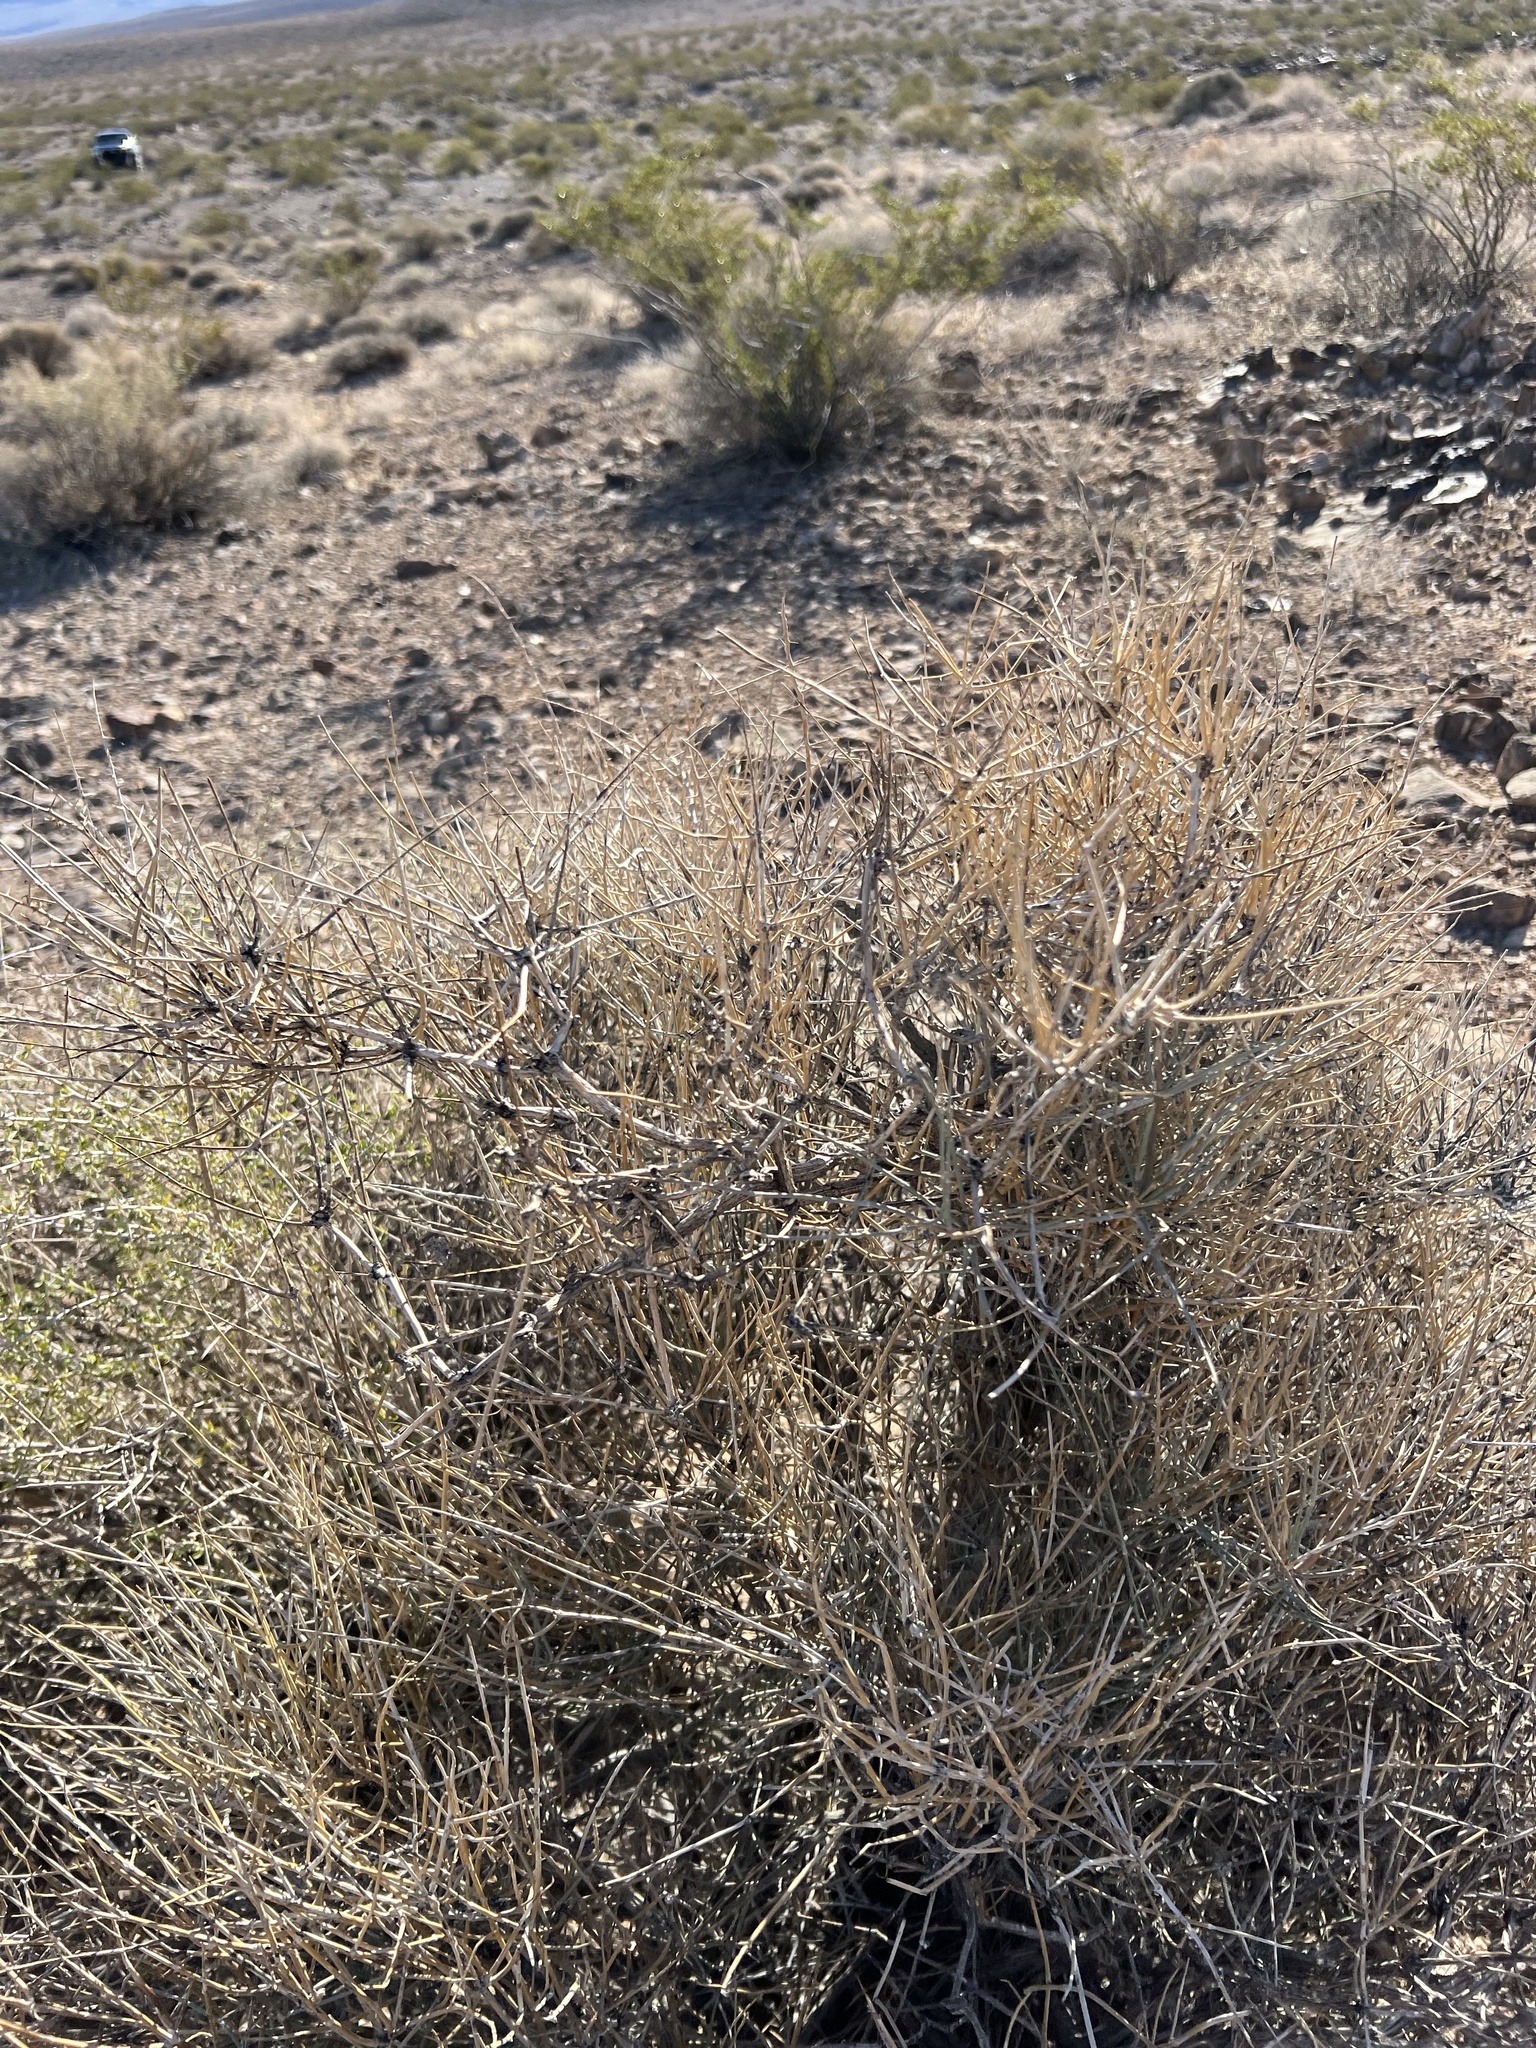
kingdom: Plantae
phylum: Tracheophyta
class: Gnetopsida
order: Ephedrales
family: Ephedraceae
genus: Ephedra
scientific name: Ephedra nevadensis
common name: Gray ephedra
